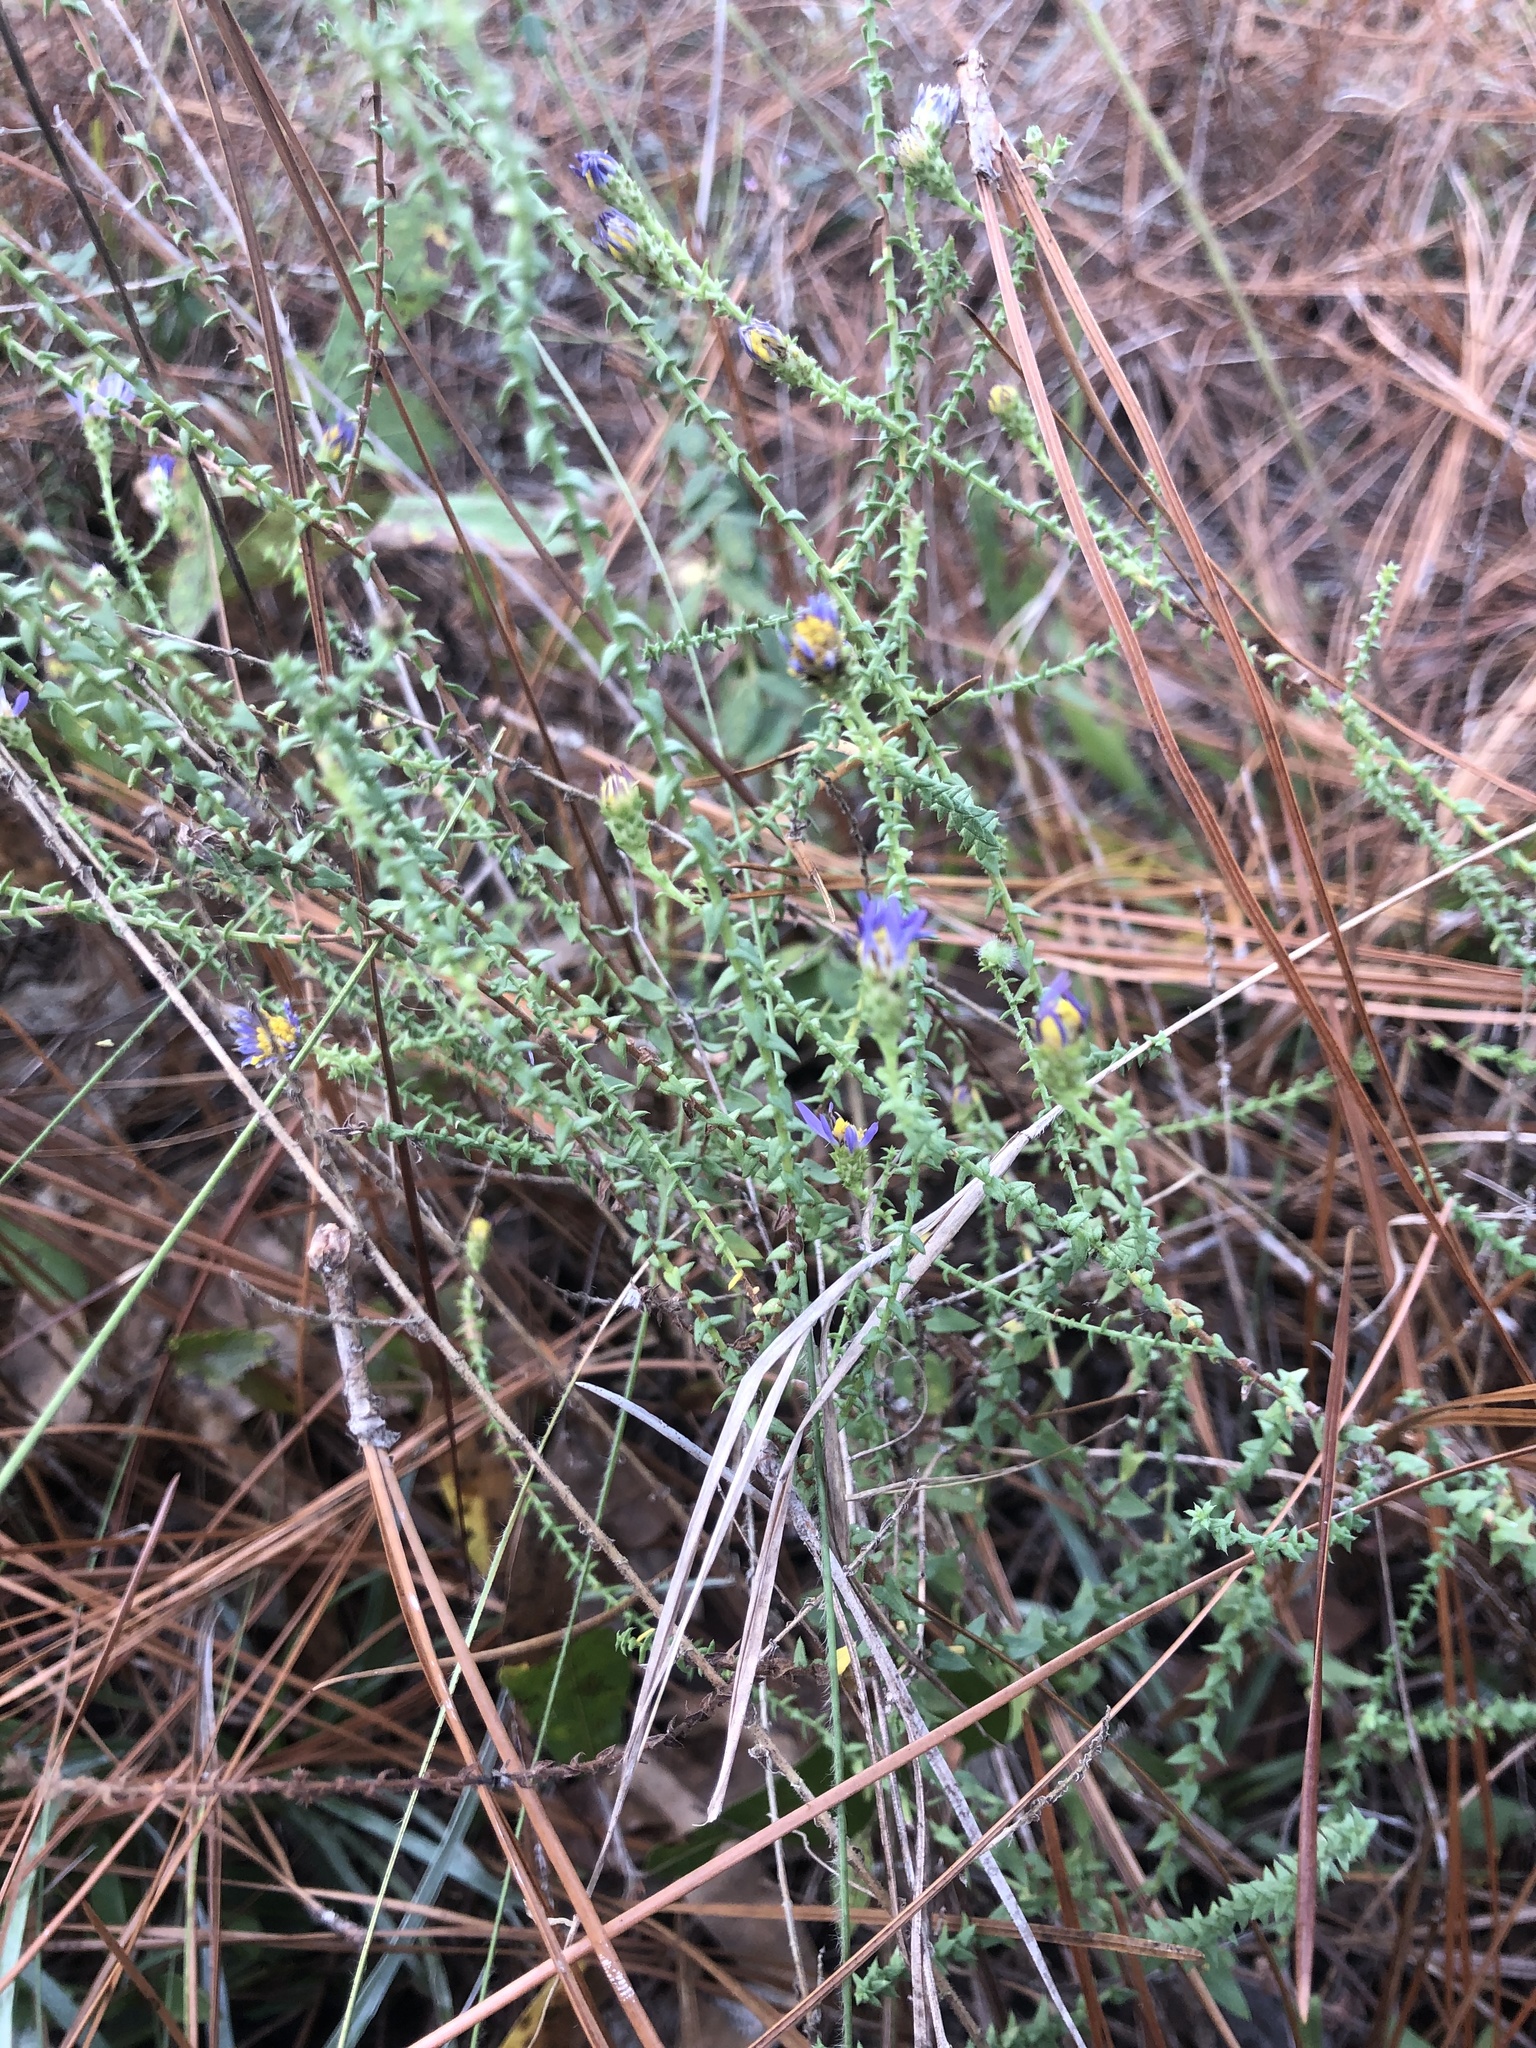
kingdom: Plantae
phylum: Tracheophyta
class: Magnoliopsida
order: Asterales
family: Asteraceae
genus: Symphyotrichum
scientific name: Symphyotrichum walteri
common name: Walter's aster
